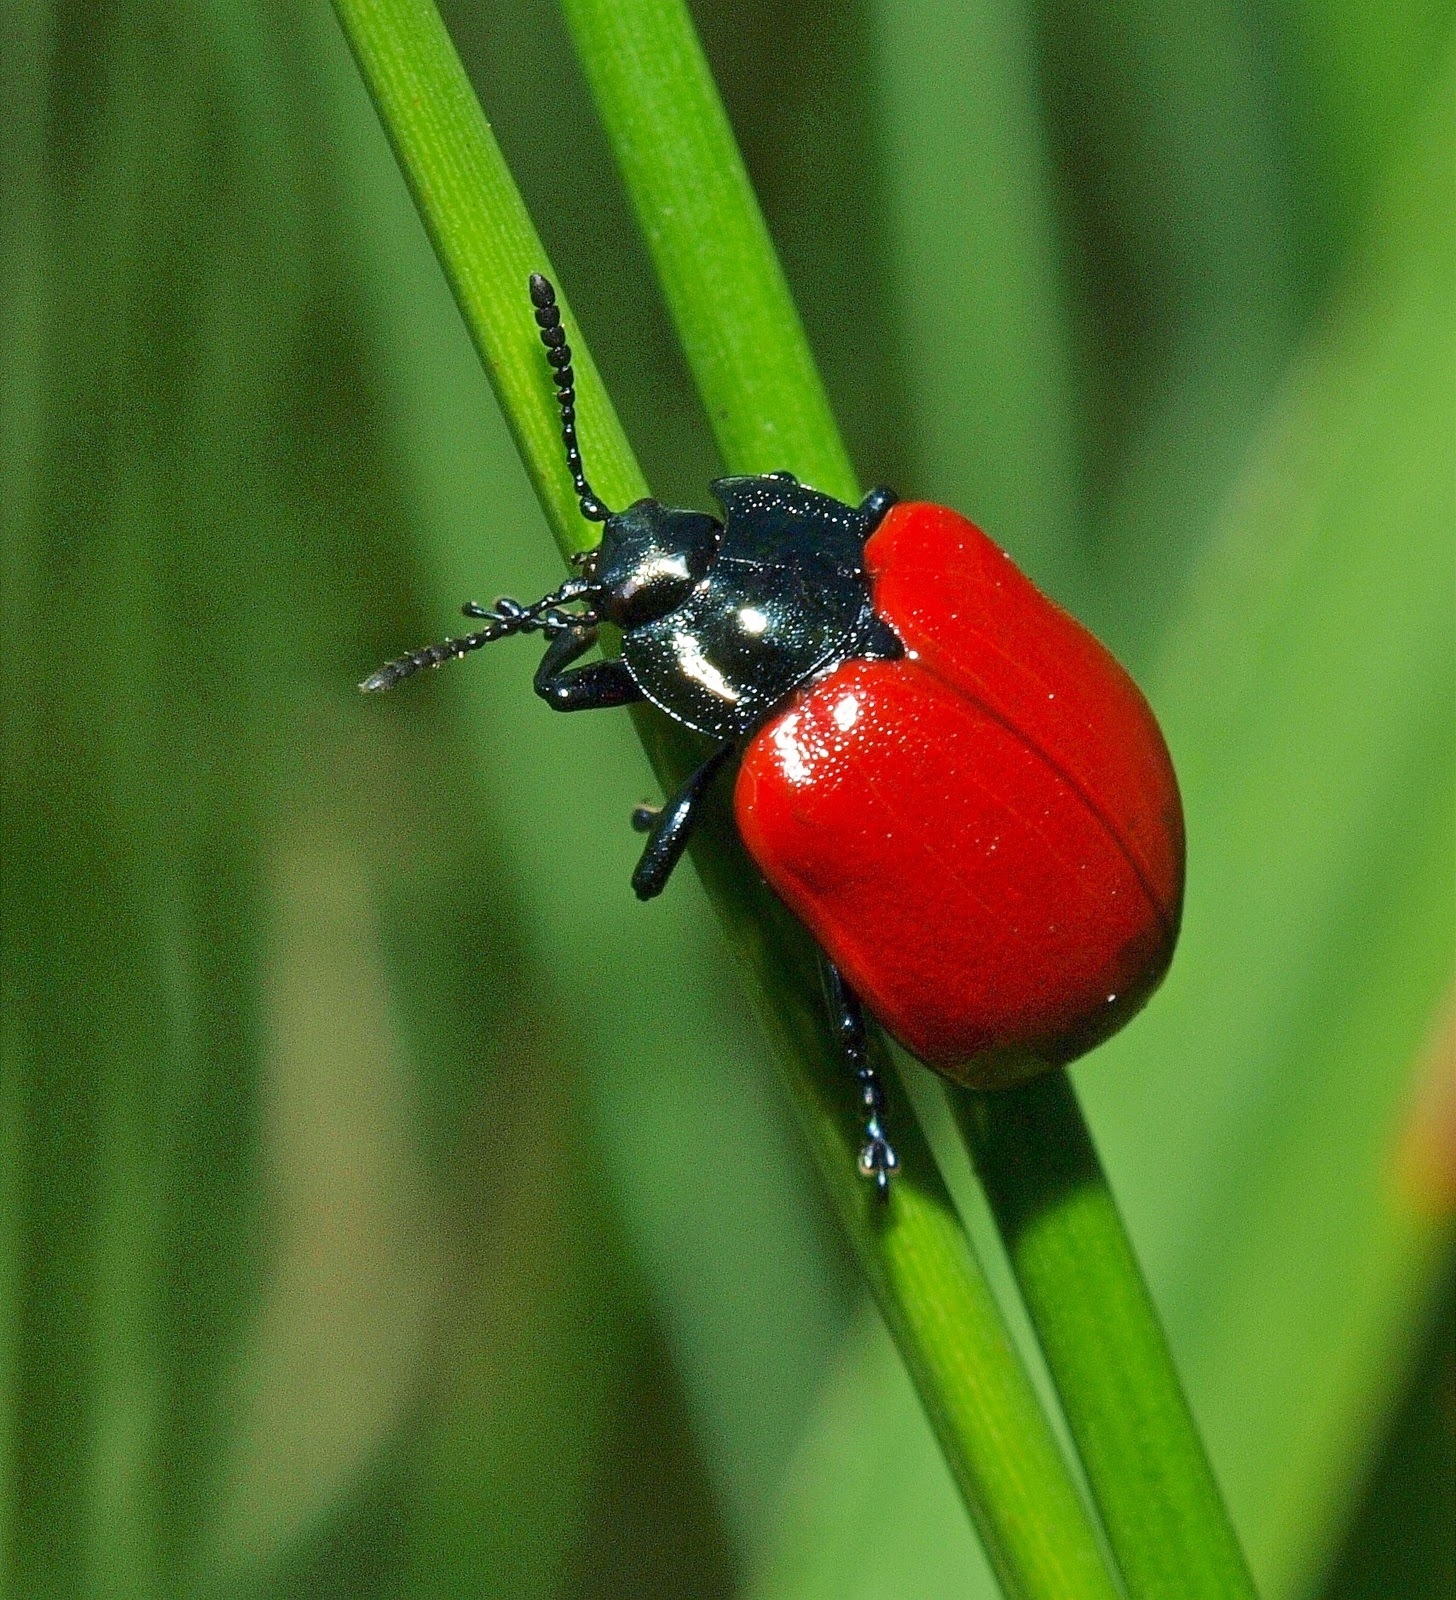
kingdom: Animalia
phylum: Arthropoda
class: Insecta
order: Coleoptera
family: Chrysomelidae
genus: Chrysomela
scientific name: Chrysomela populi
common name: Red poplar leaf beetle
